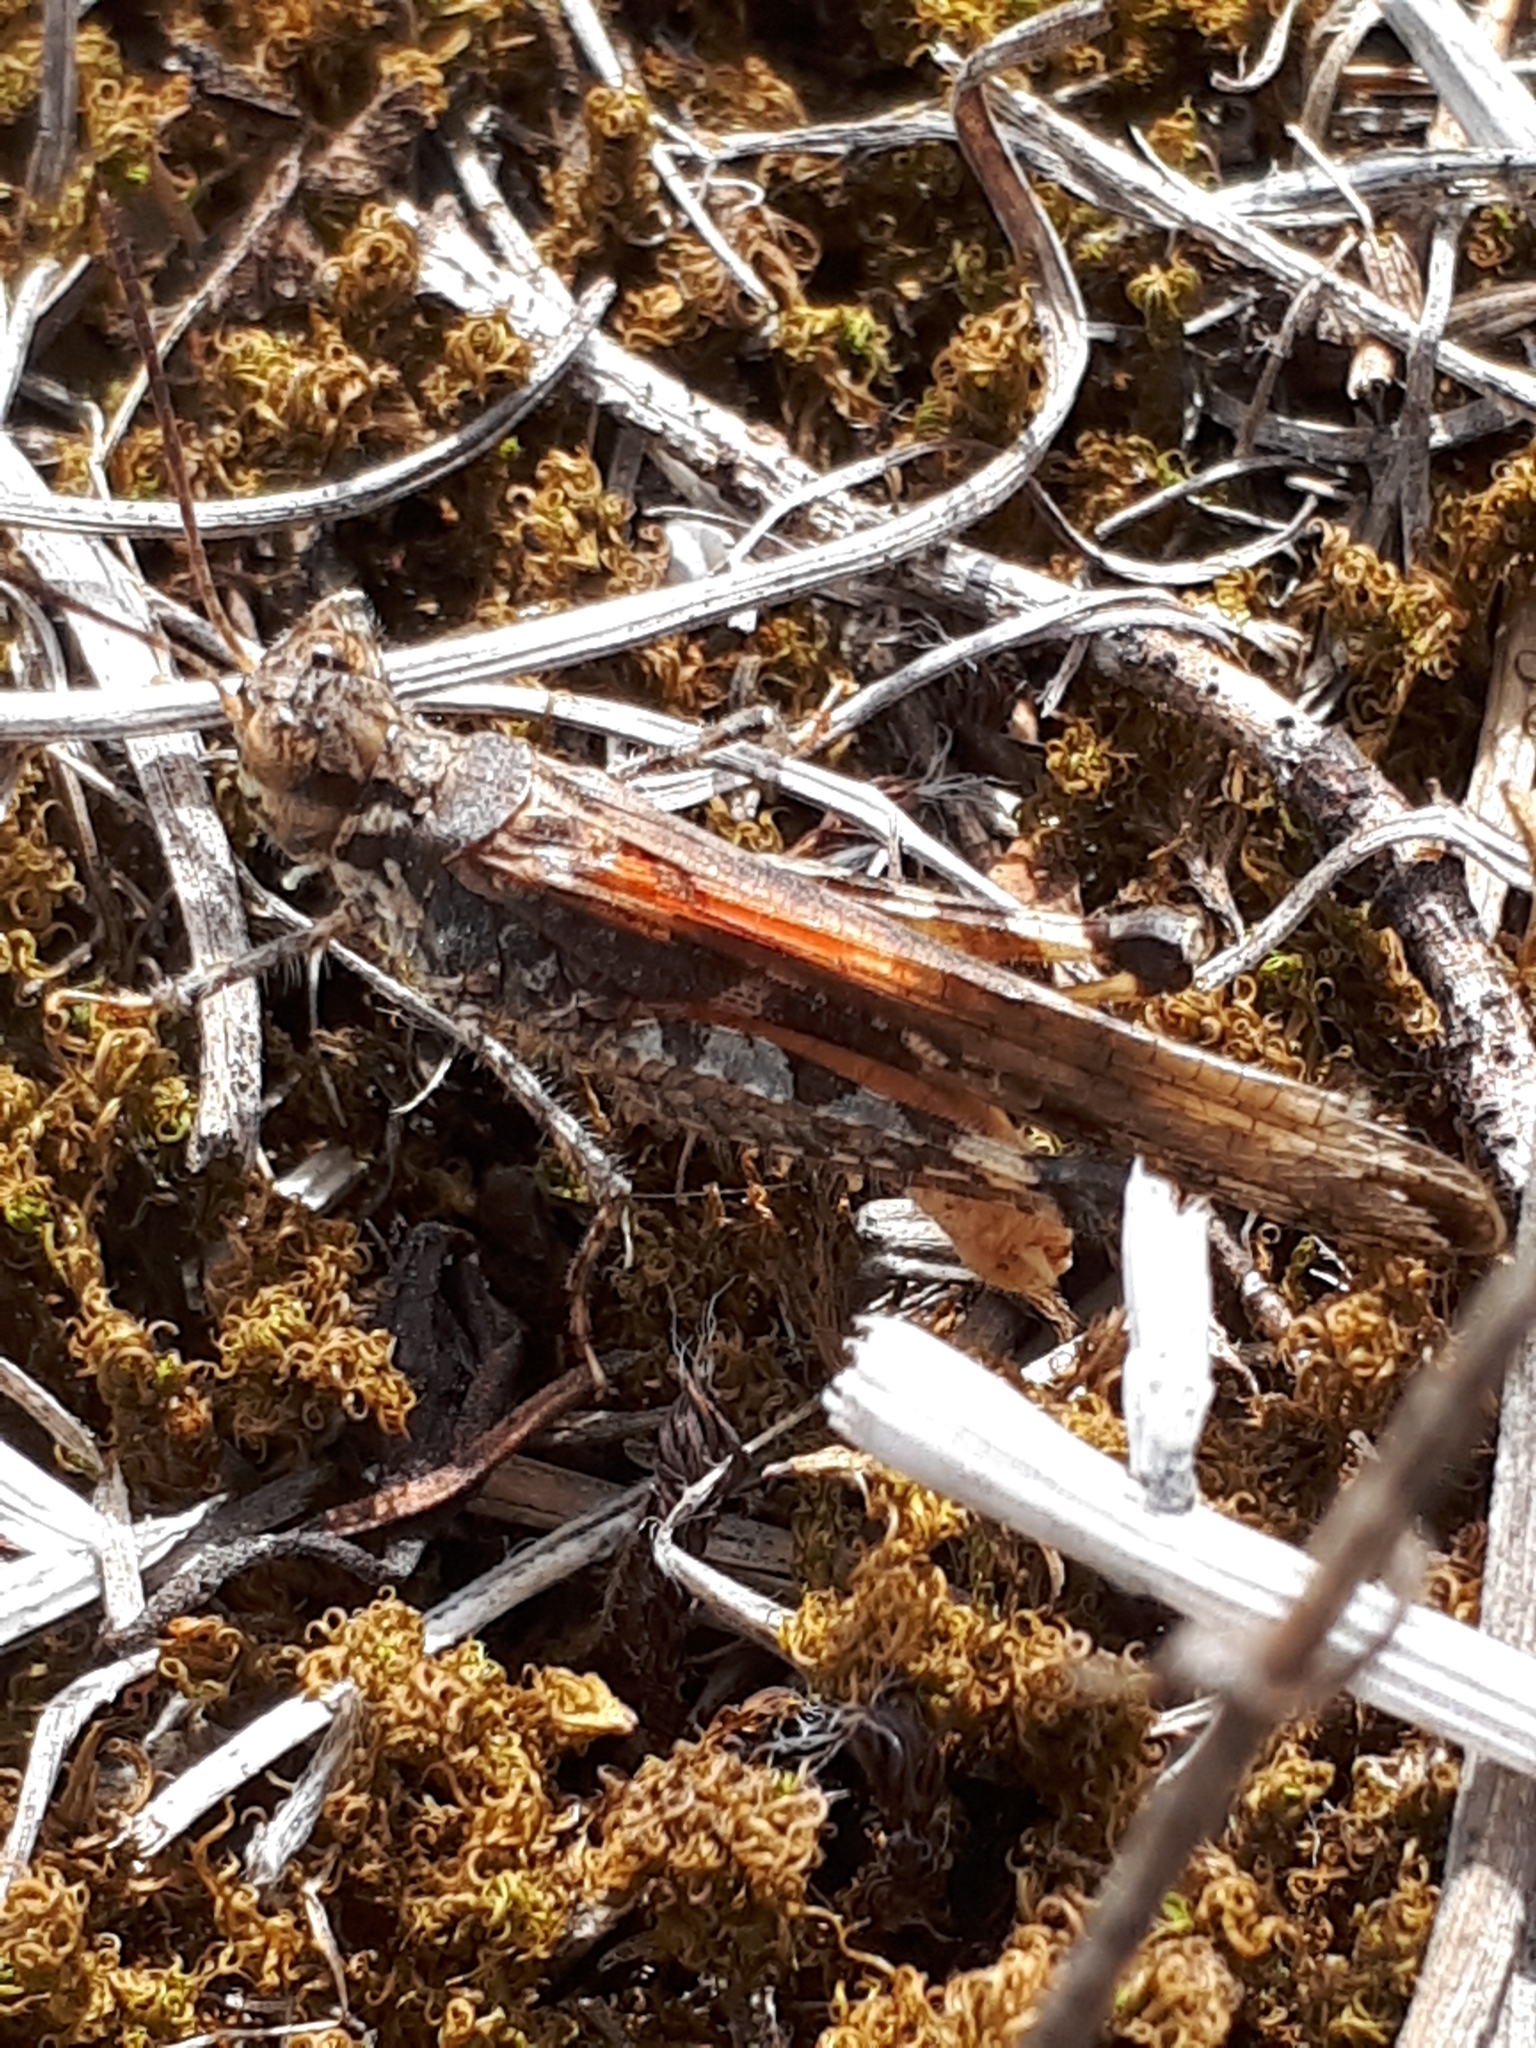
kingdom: Animalia
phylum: Arthropoda
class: Insecta
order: Orthoptera
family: Acrididae
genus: Acrotylus
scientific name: Acrotylus patruelis
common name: Slender burrowing grasshopper
